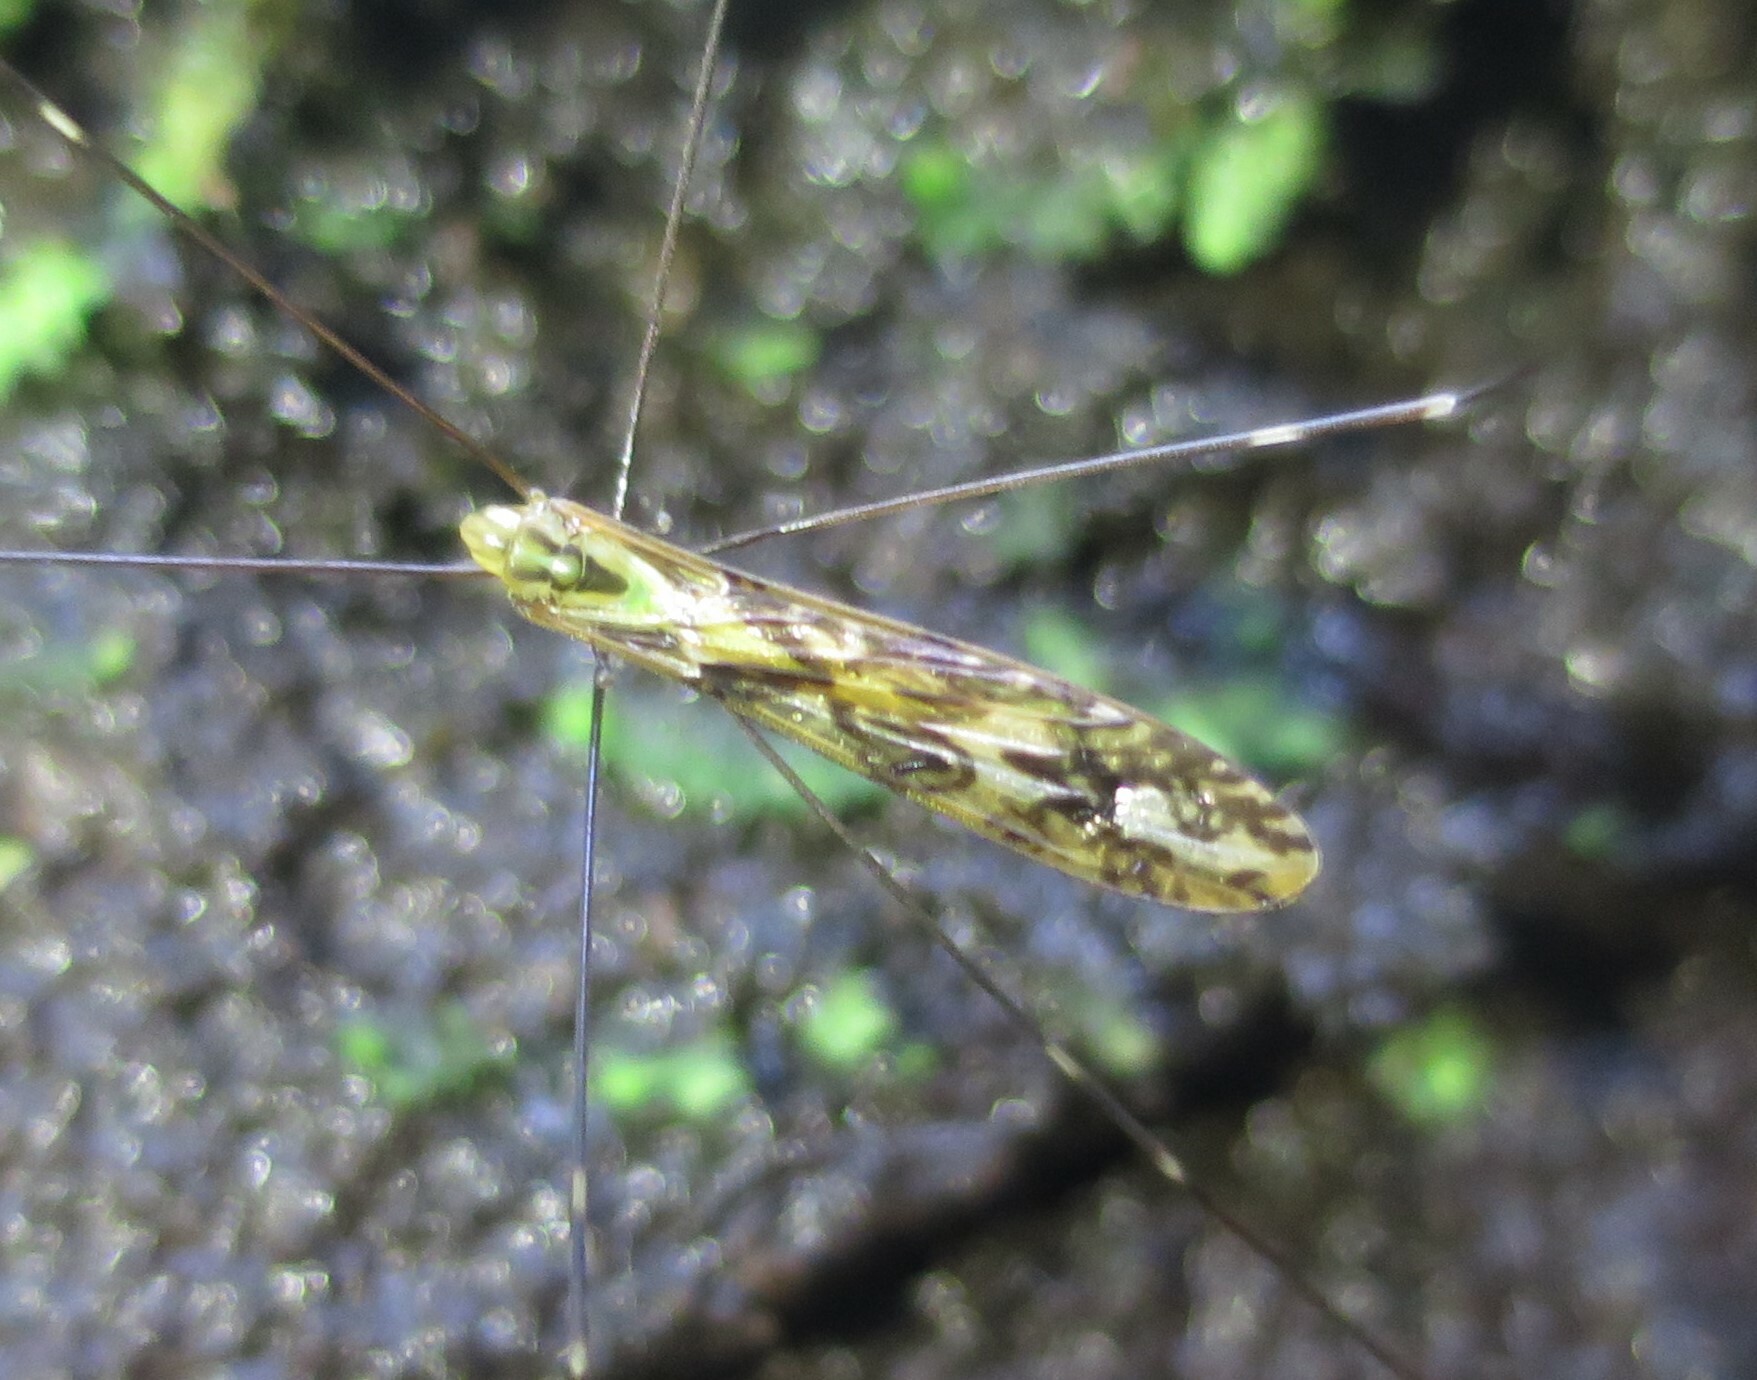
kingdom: Animalia
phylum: Arthropoda
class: Insecta
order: Diptera
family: Limoniidae
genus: Discobola
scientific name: Discobola tessellata
